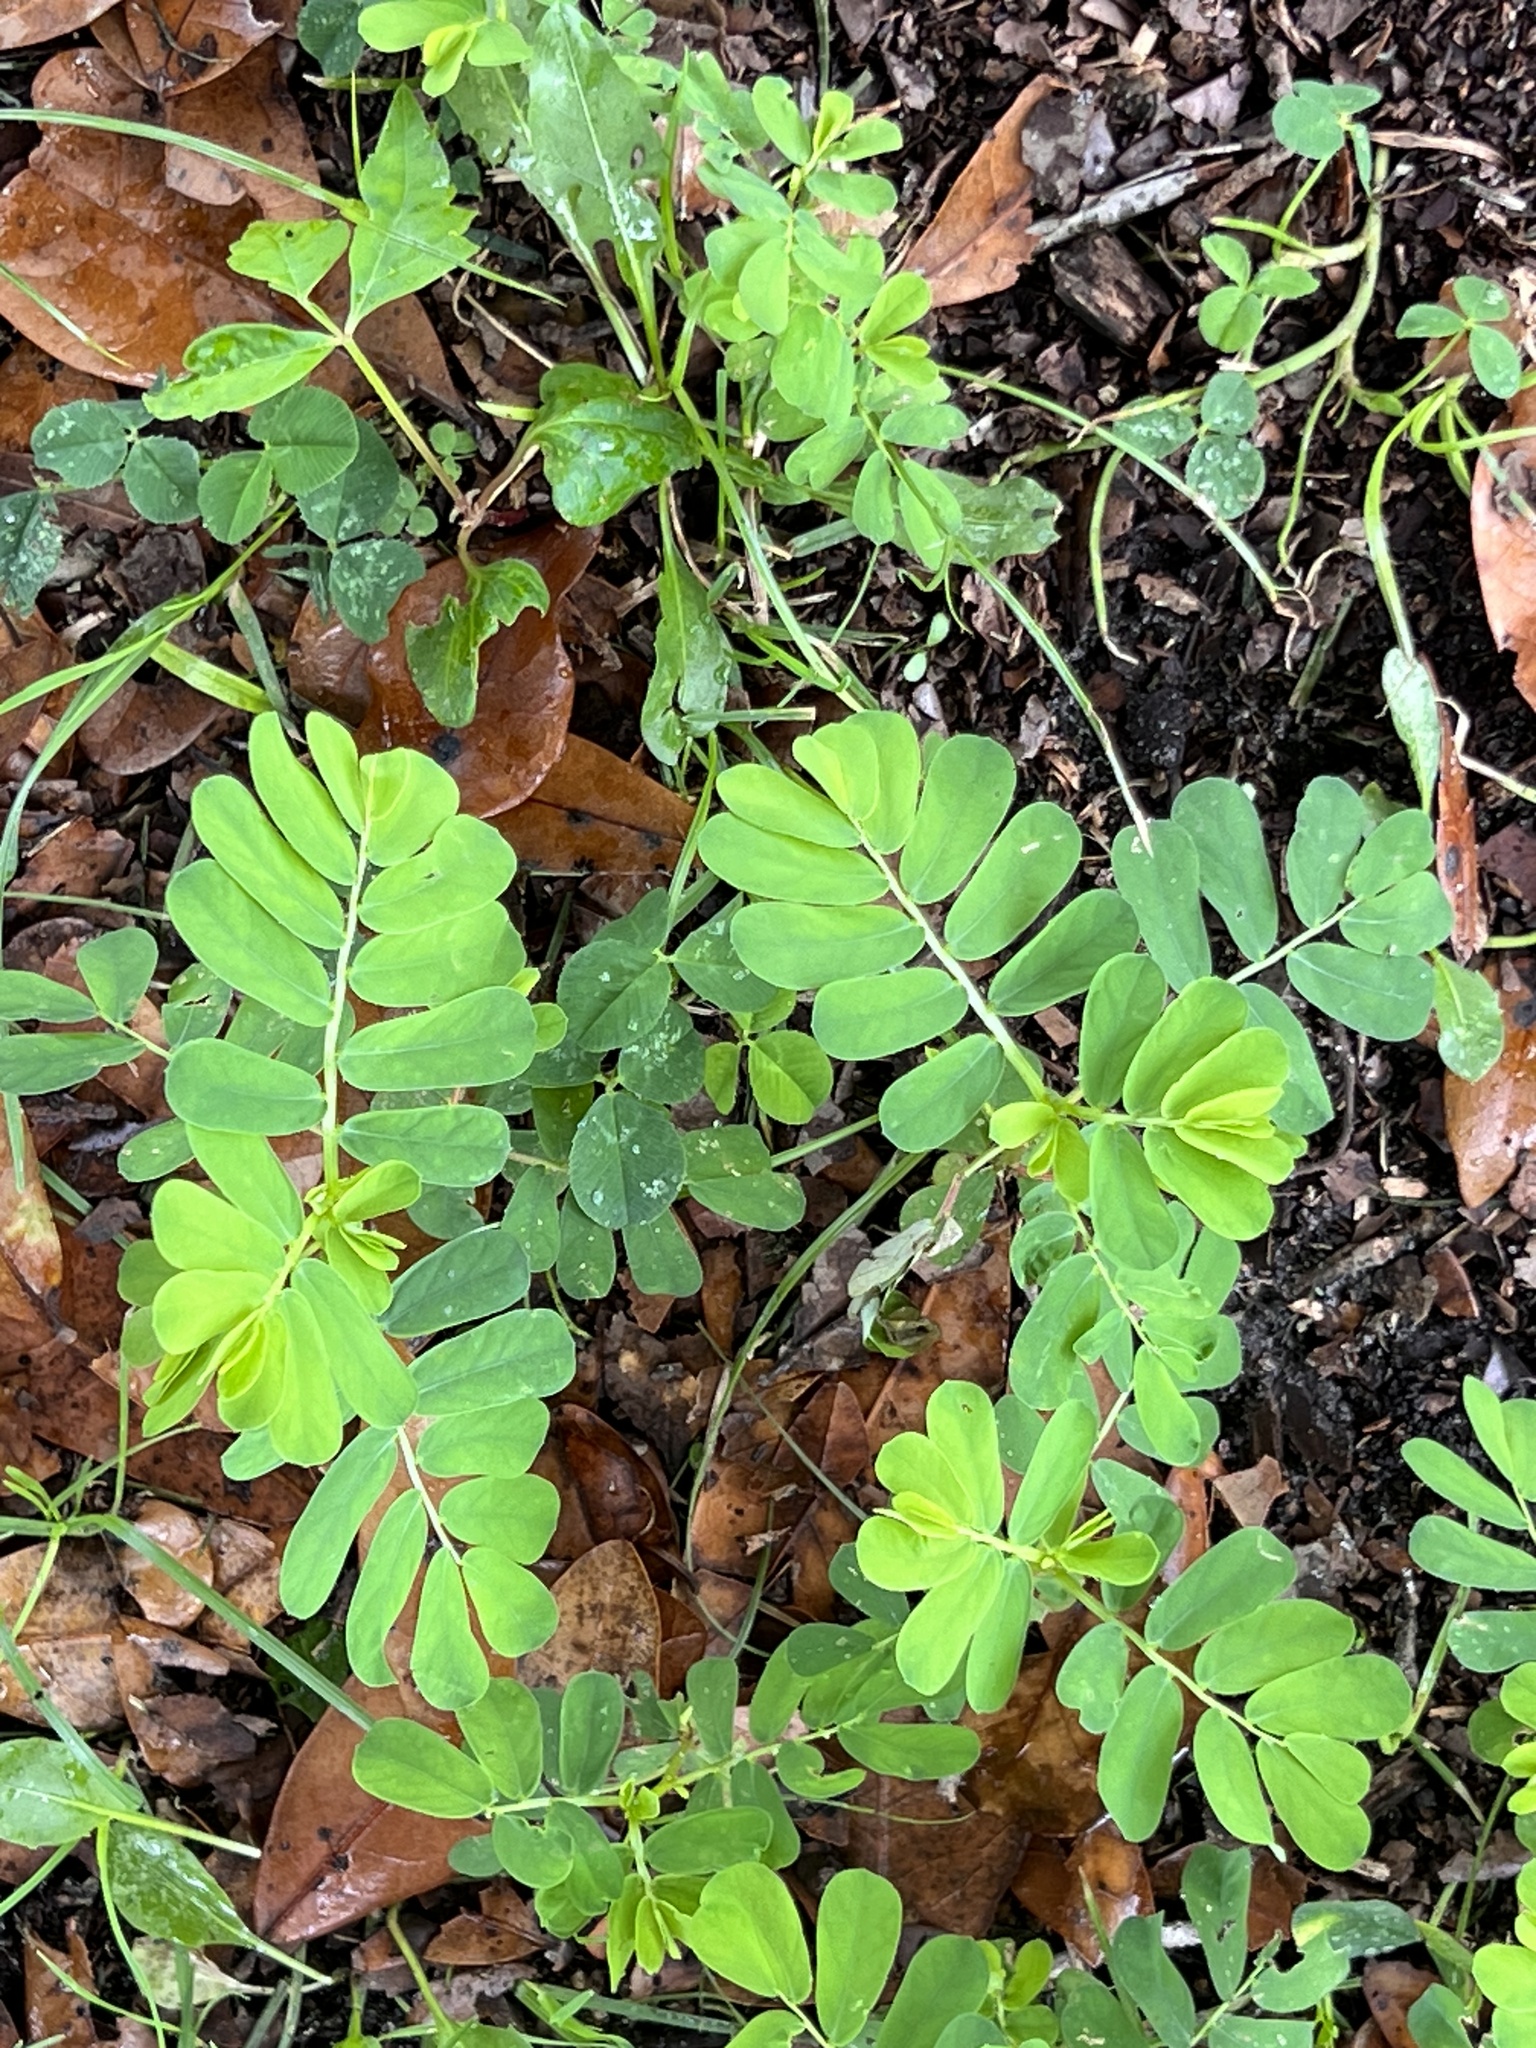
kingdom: Plantae
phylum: Tracheophyta
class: Magnoliopsida
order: Malpighiales
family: Phyllanthaceae
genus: Phyllanthus
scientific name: Phyllanthus urinaria
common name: Chamber bitter
